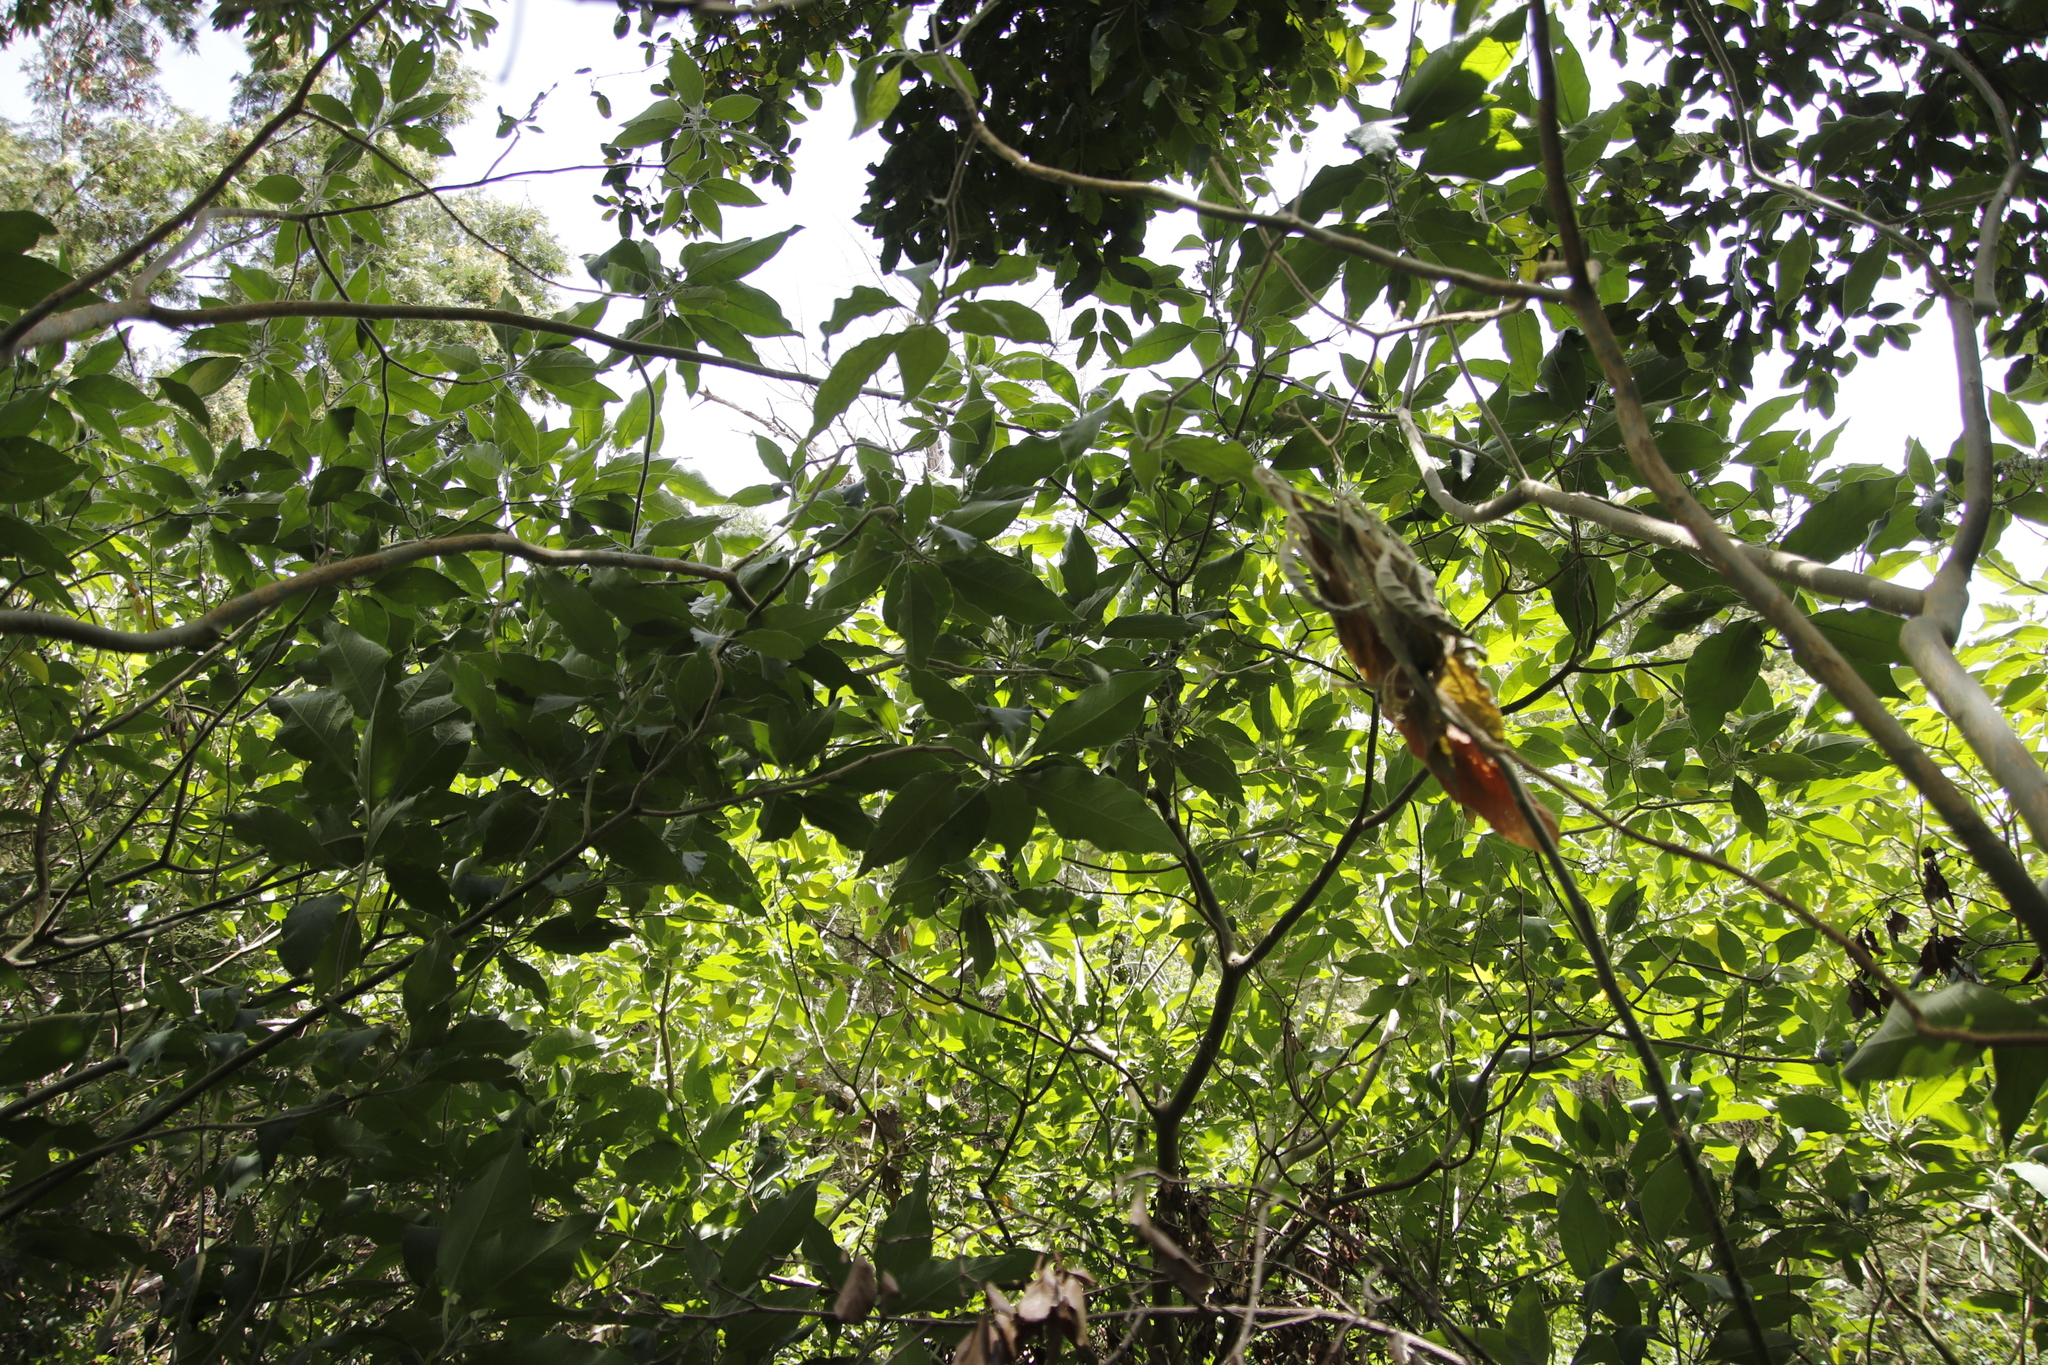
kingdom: Plantae
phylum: Tracheophyta
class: Magnoliopsida
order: Cornales
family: Curtisiaceae
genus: Curtisia
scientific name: Curtisia dentata
